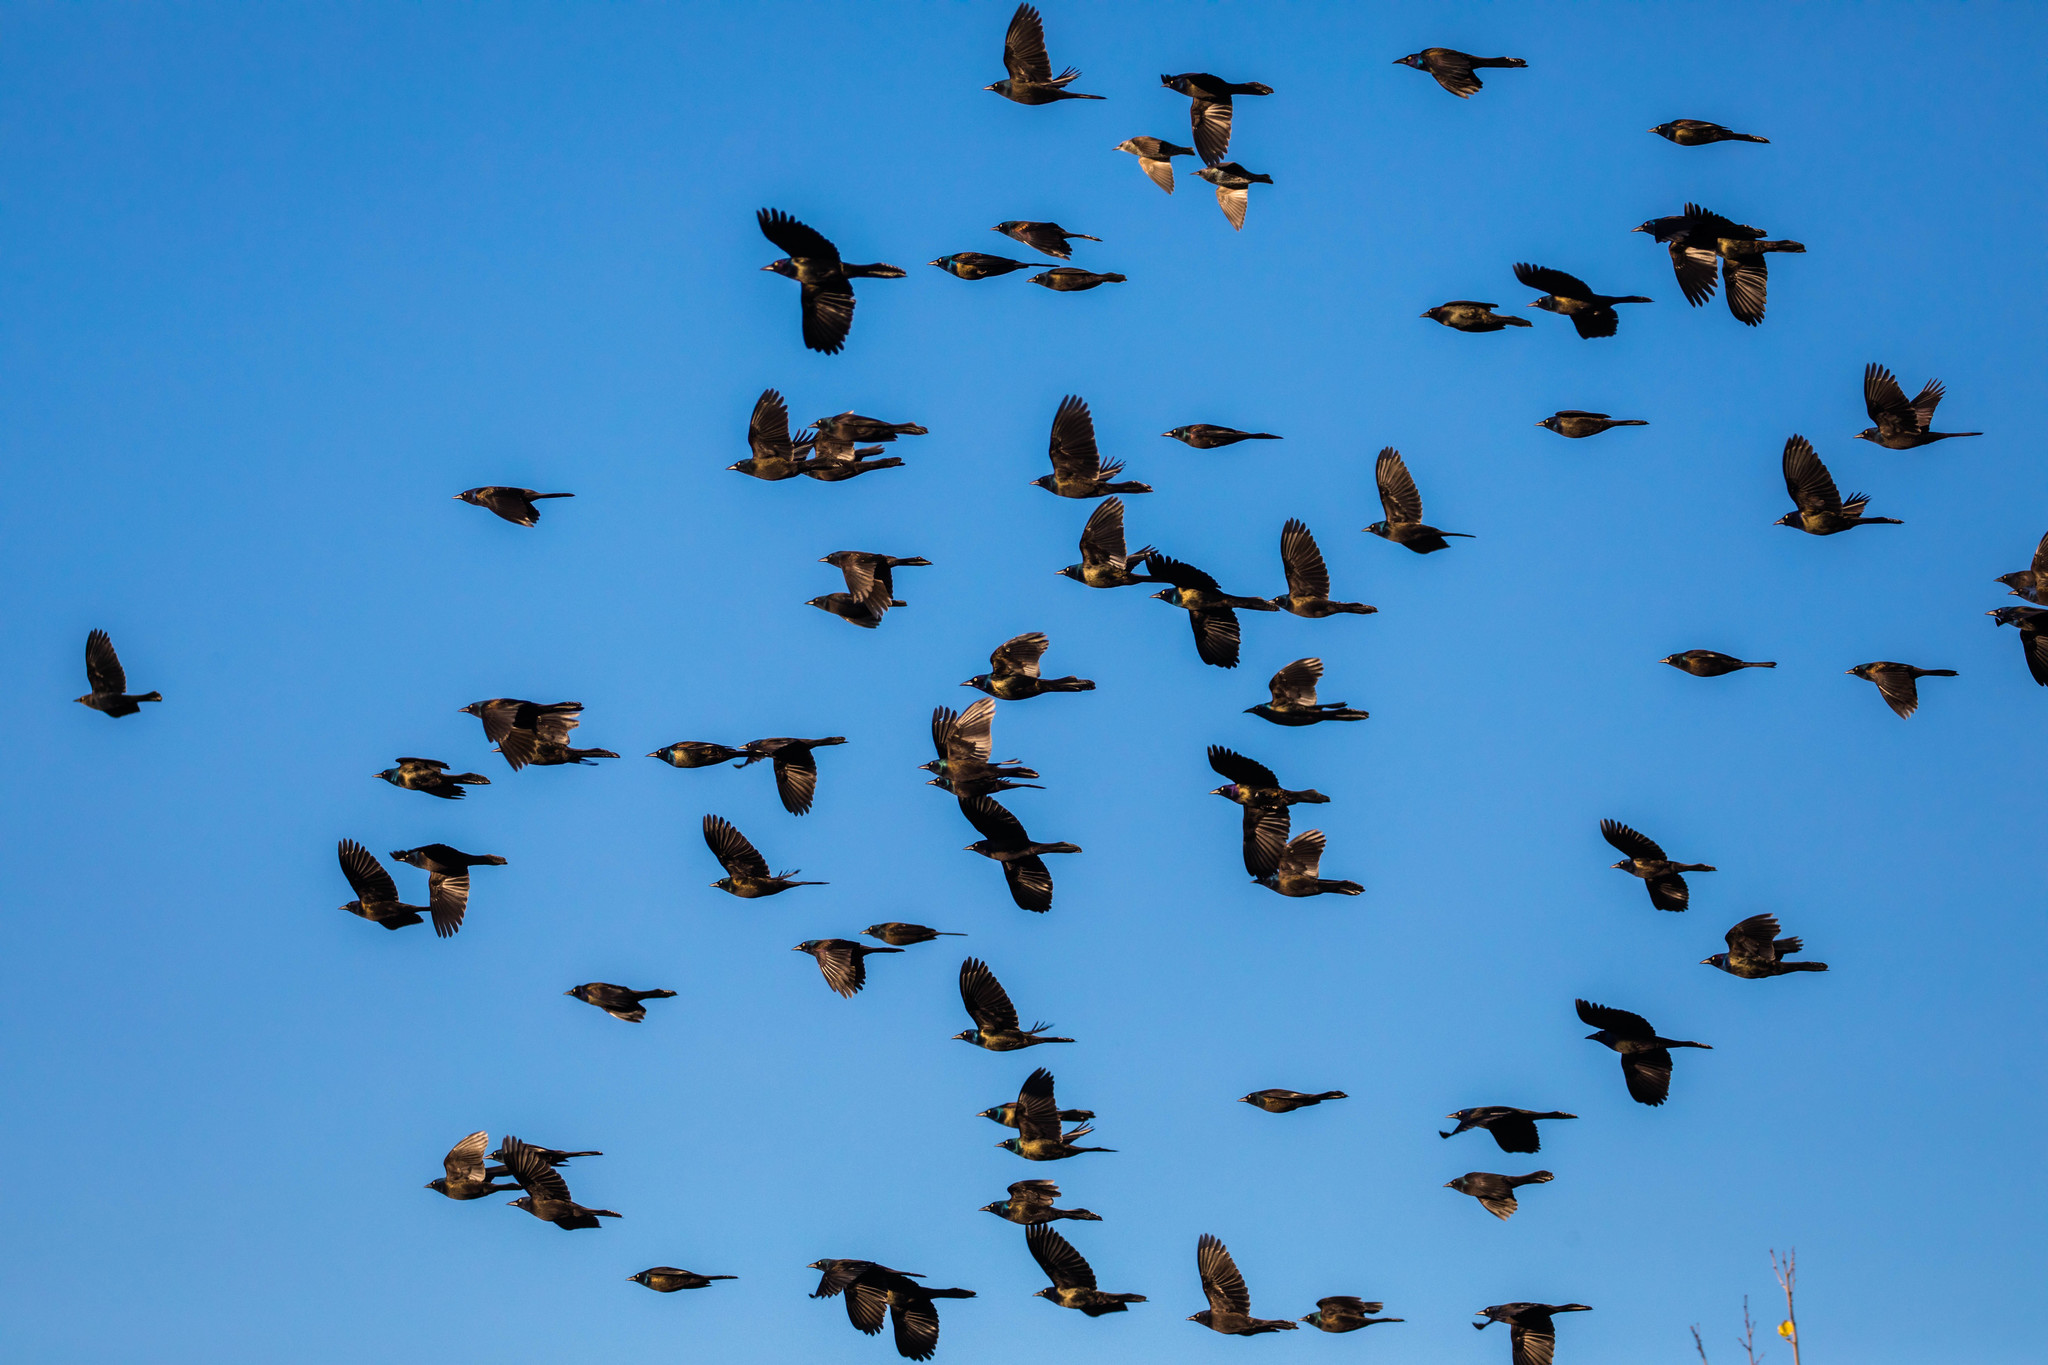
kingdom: Animalia
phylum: Chordata
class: Aves
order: Passeriformes
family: Icteridae
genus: Quiscalus
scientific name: Quiscalus quiscula
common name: Common grackle
